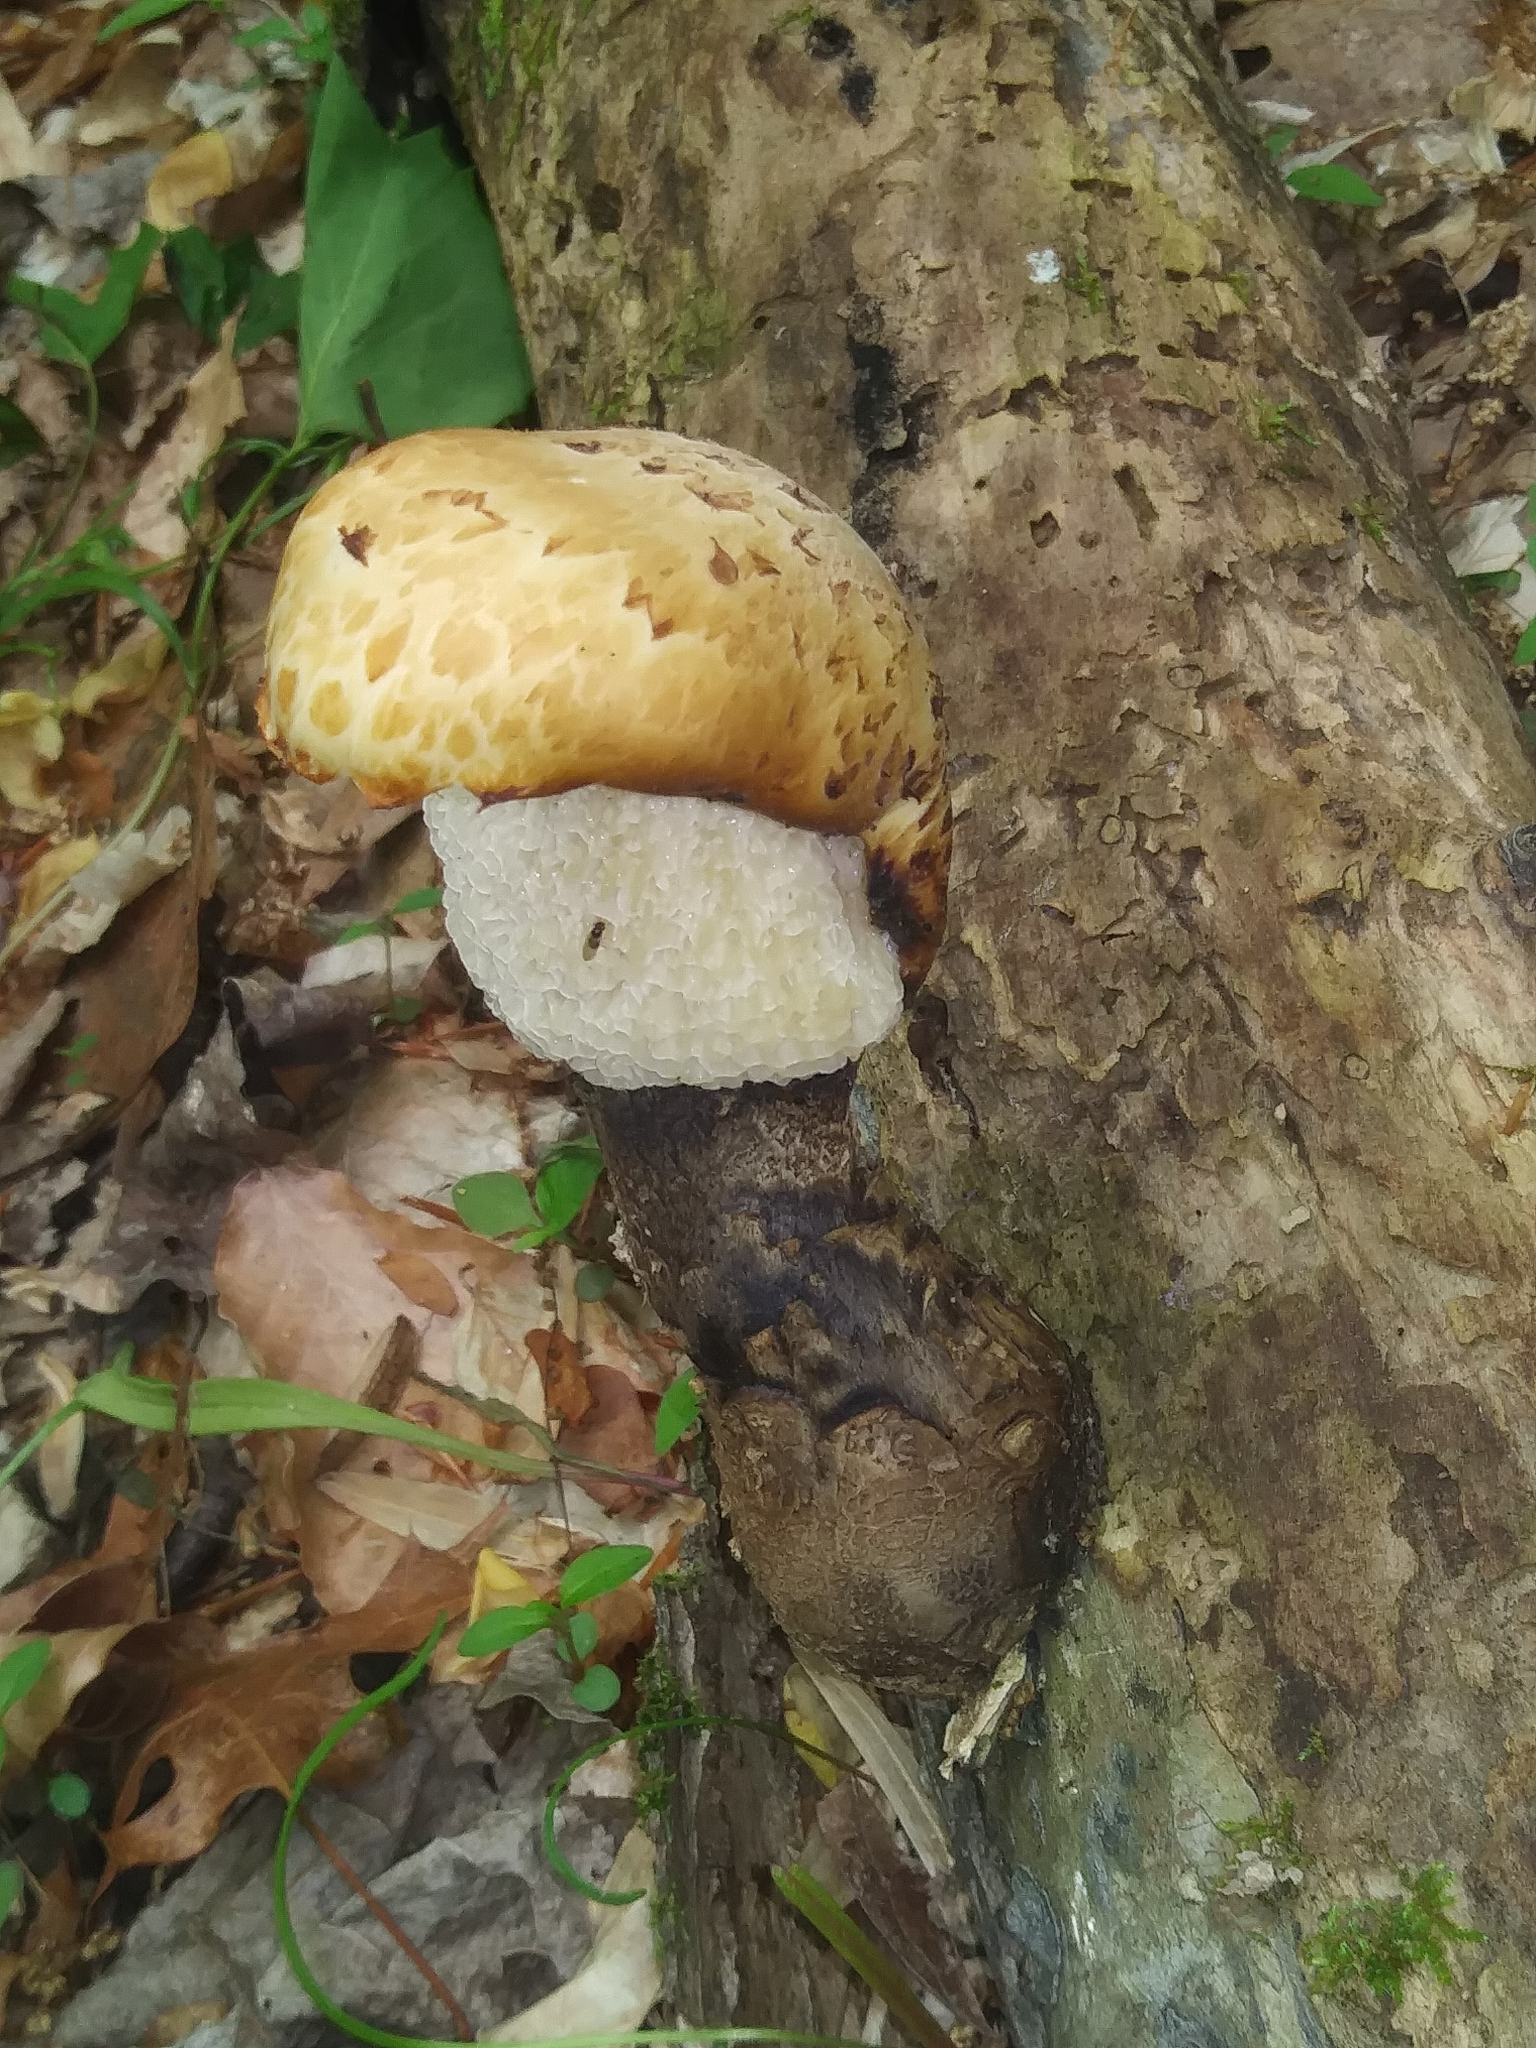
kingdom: Fungi
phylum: Basidiomycota
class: Agaricomycetes
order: Polyporales
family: Polyporaceae
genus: Cerioporus
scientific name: Cerioporus squamosus
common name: Dryad's saddle
